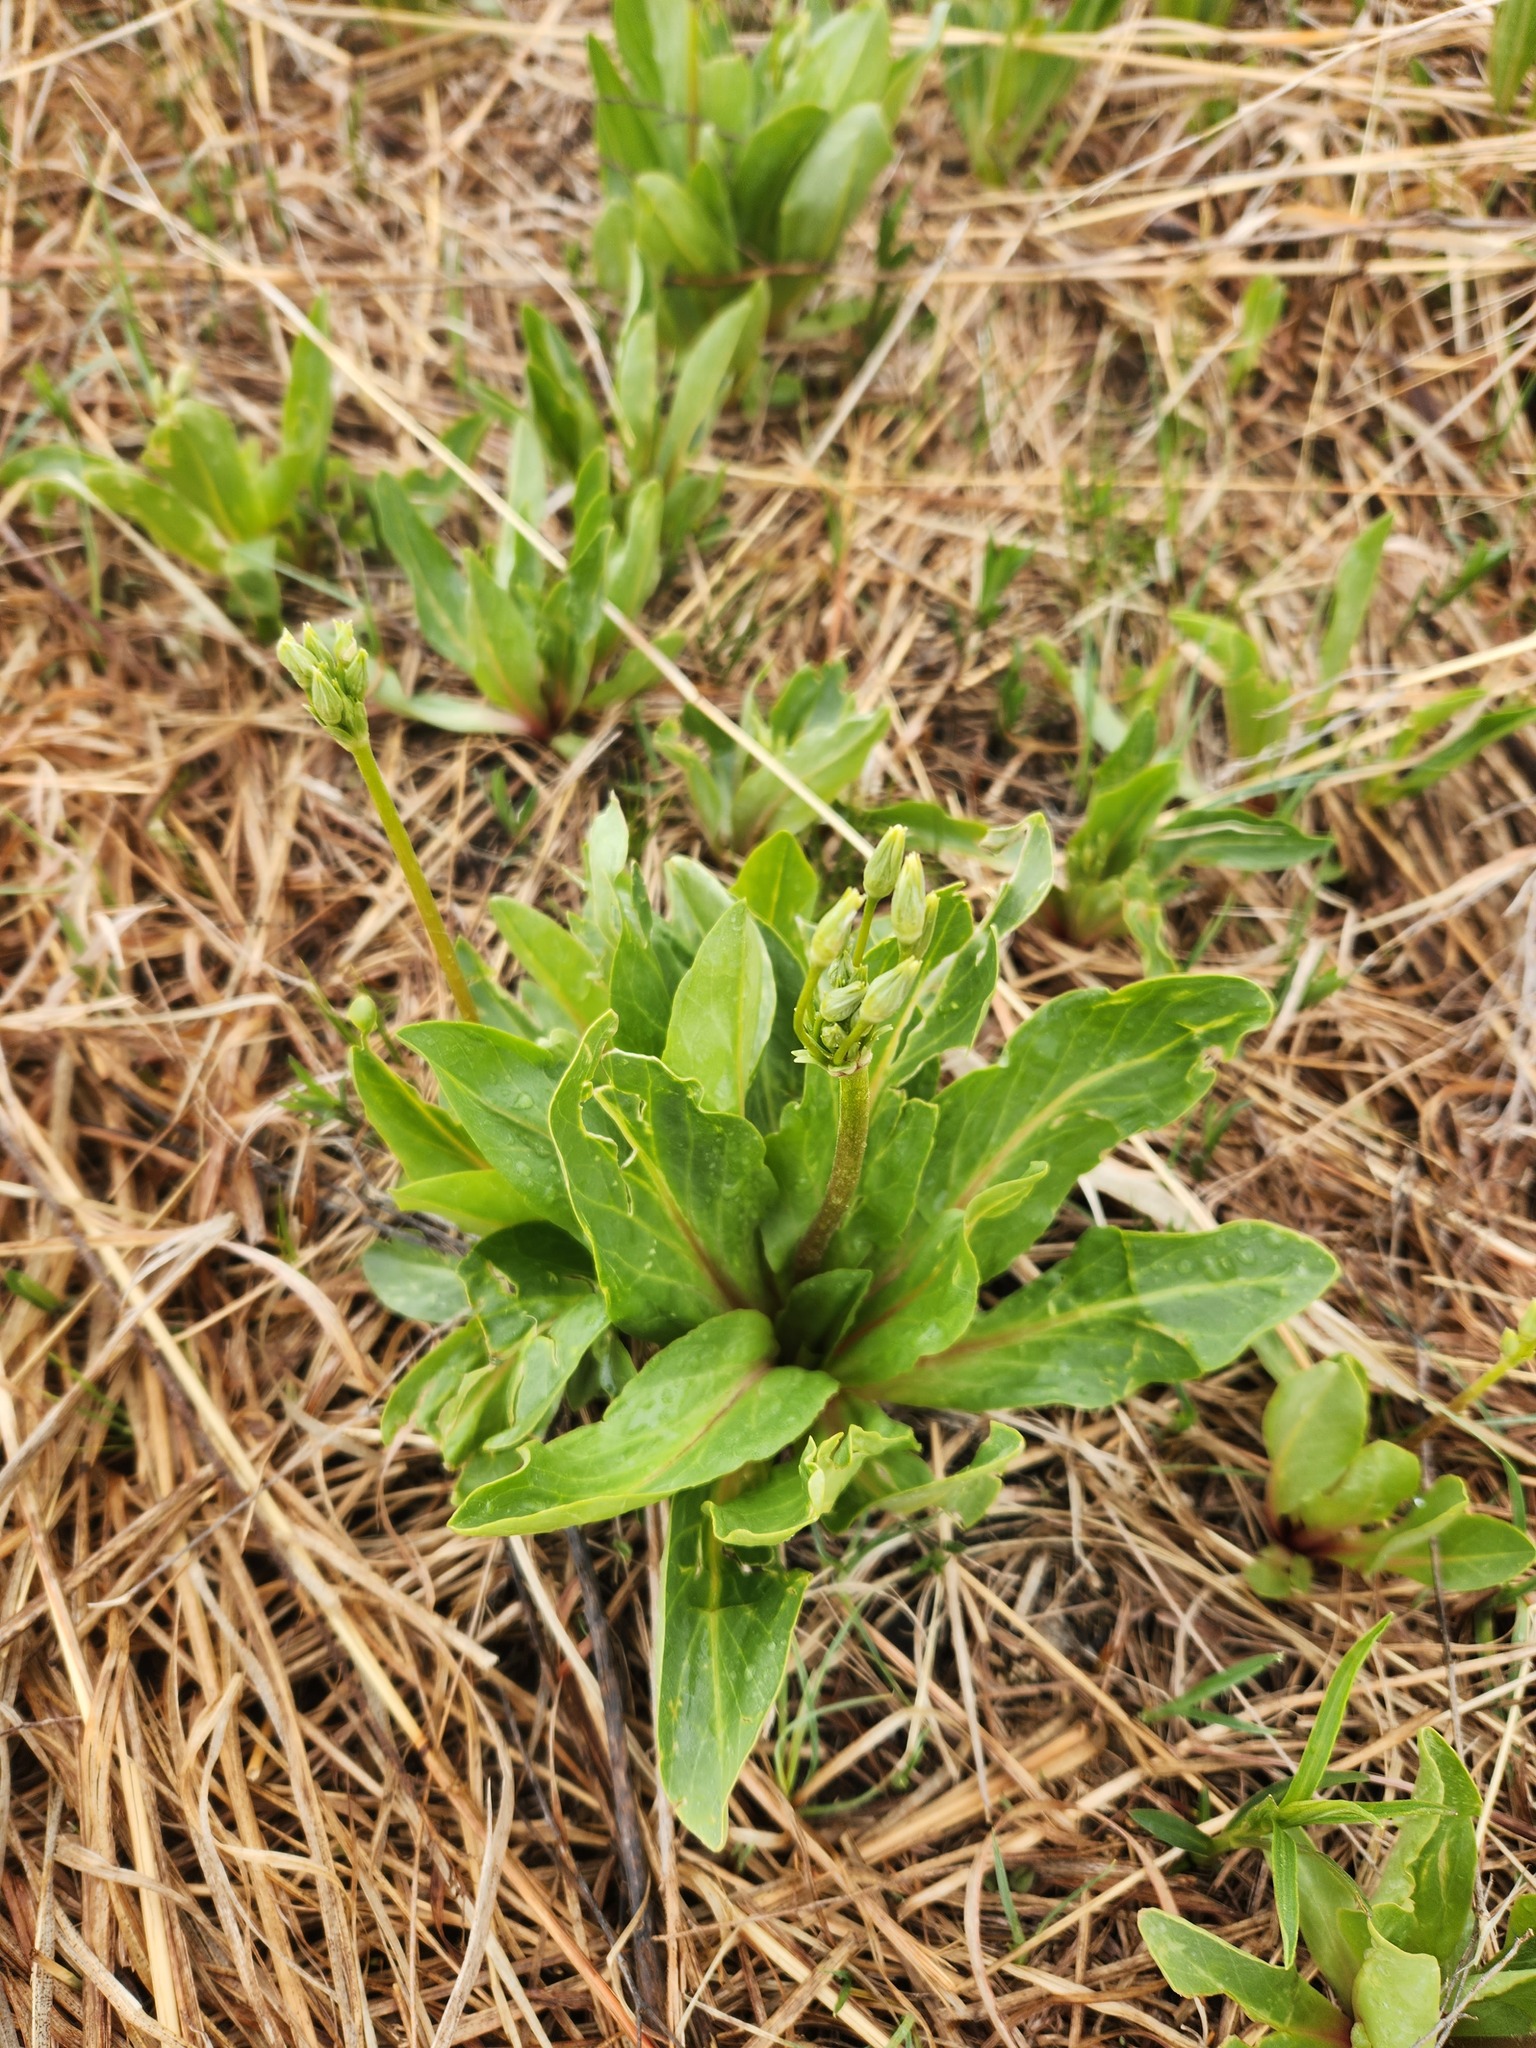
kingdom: Plantae
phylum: Tracheophyta
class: Magnoliopsida
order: Ericales
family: Primulaceae
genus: Dodecatheon
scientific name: Dodecatheon meadia
